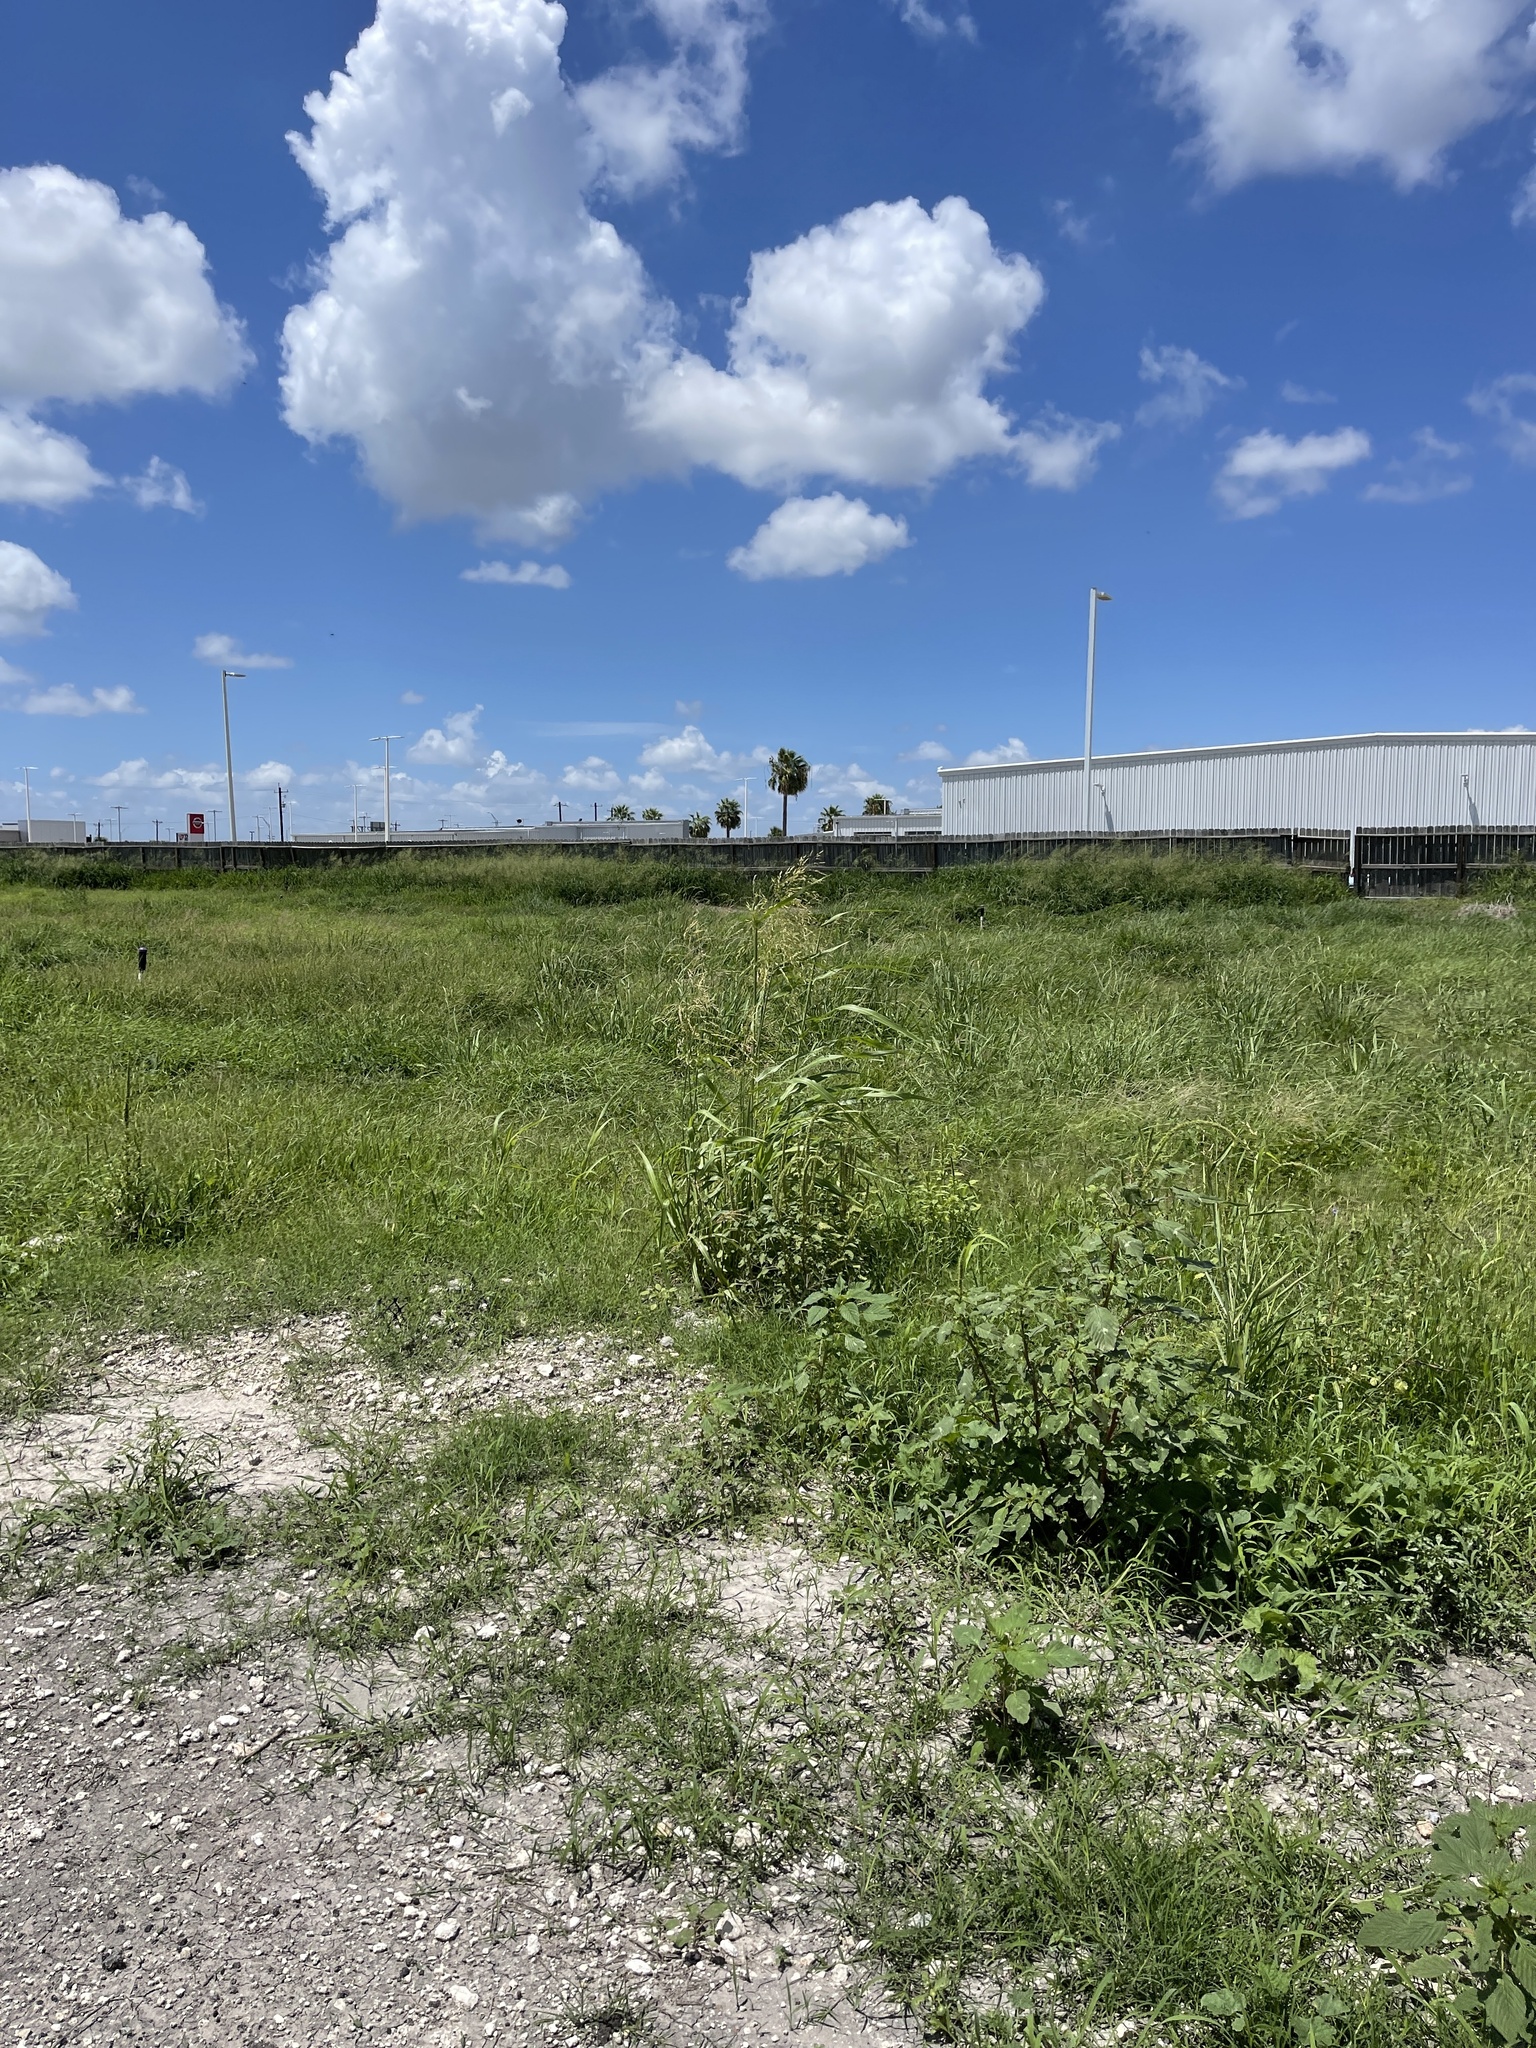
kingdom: Plantae
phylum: Tracheophyta
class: Liliopsida
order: Poales
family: Poaceae
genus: Sorghum
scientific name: Sorghum halepense
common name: Johnson-grass
